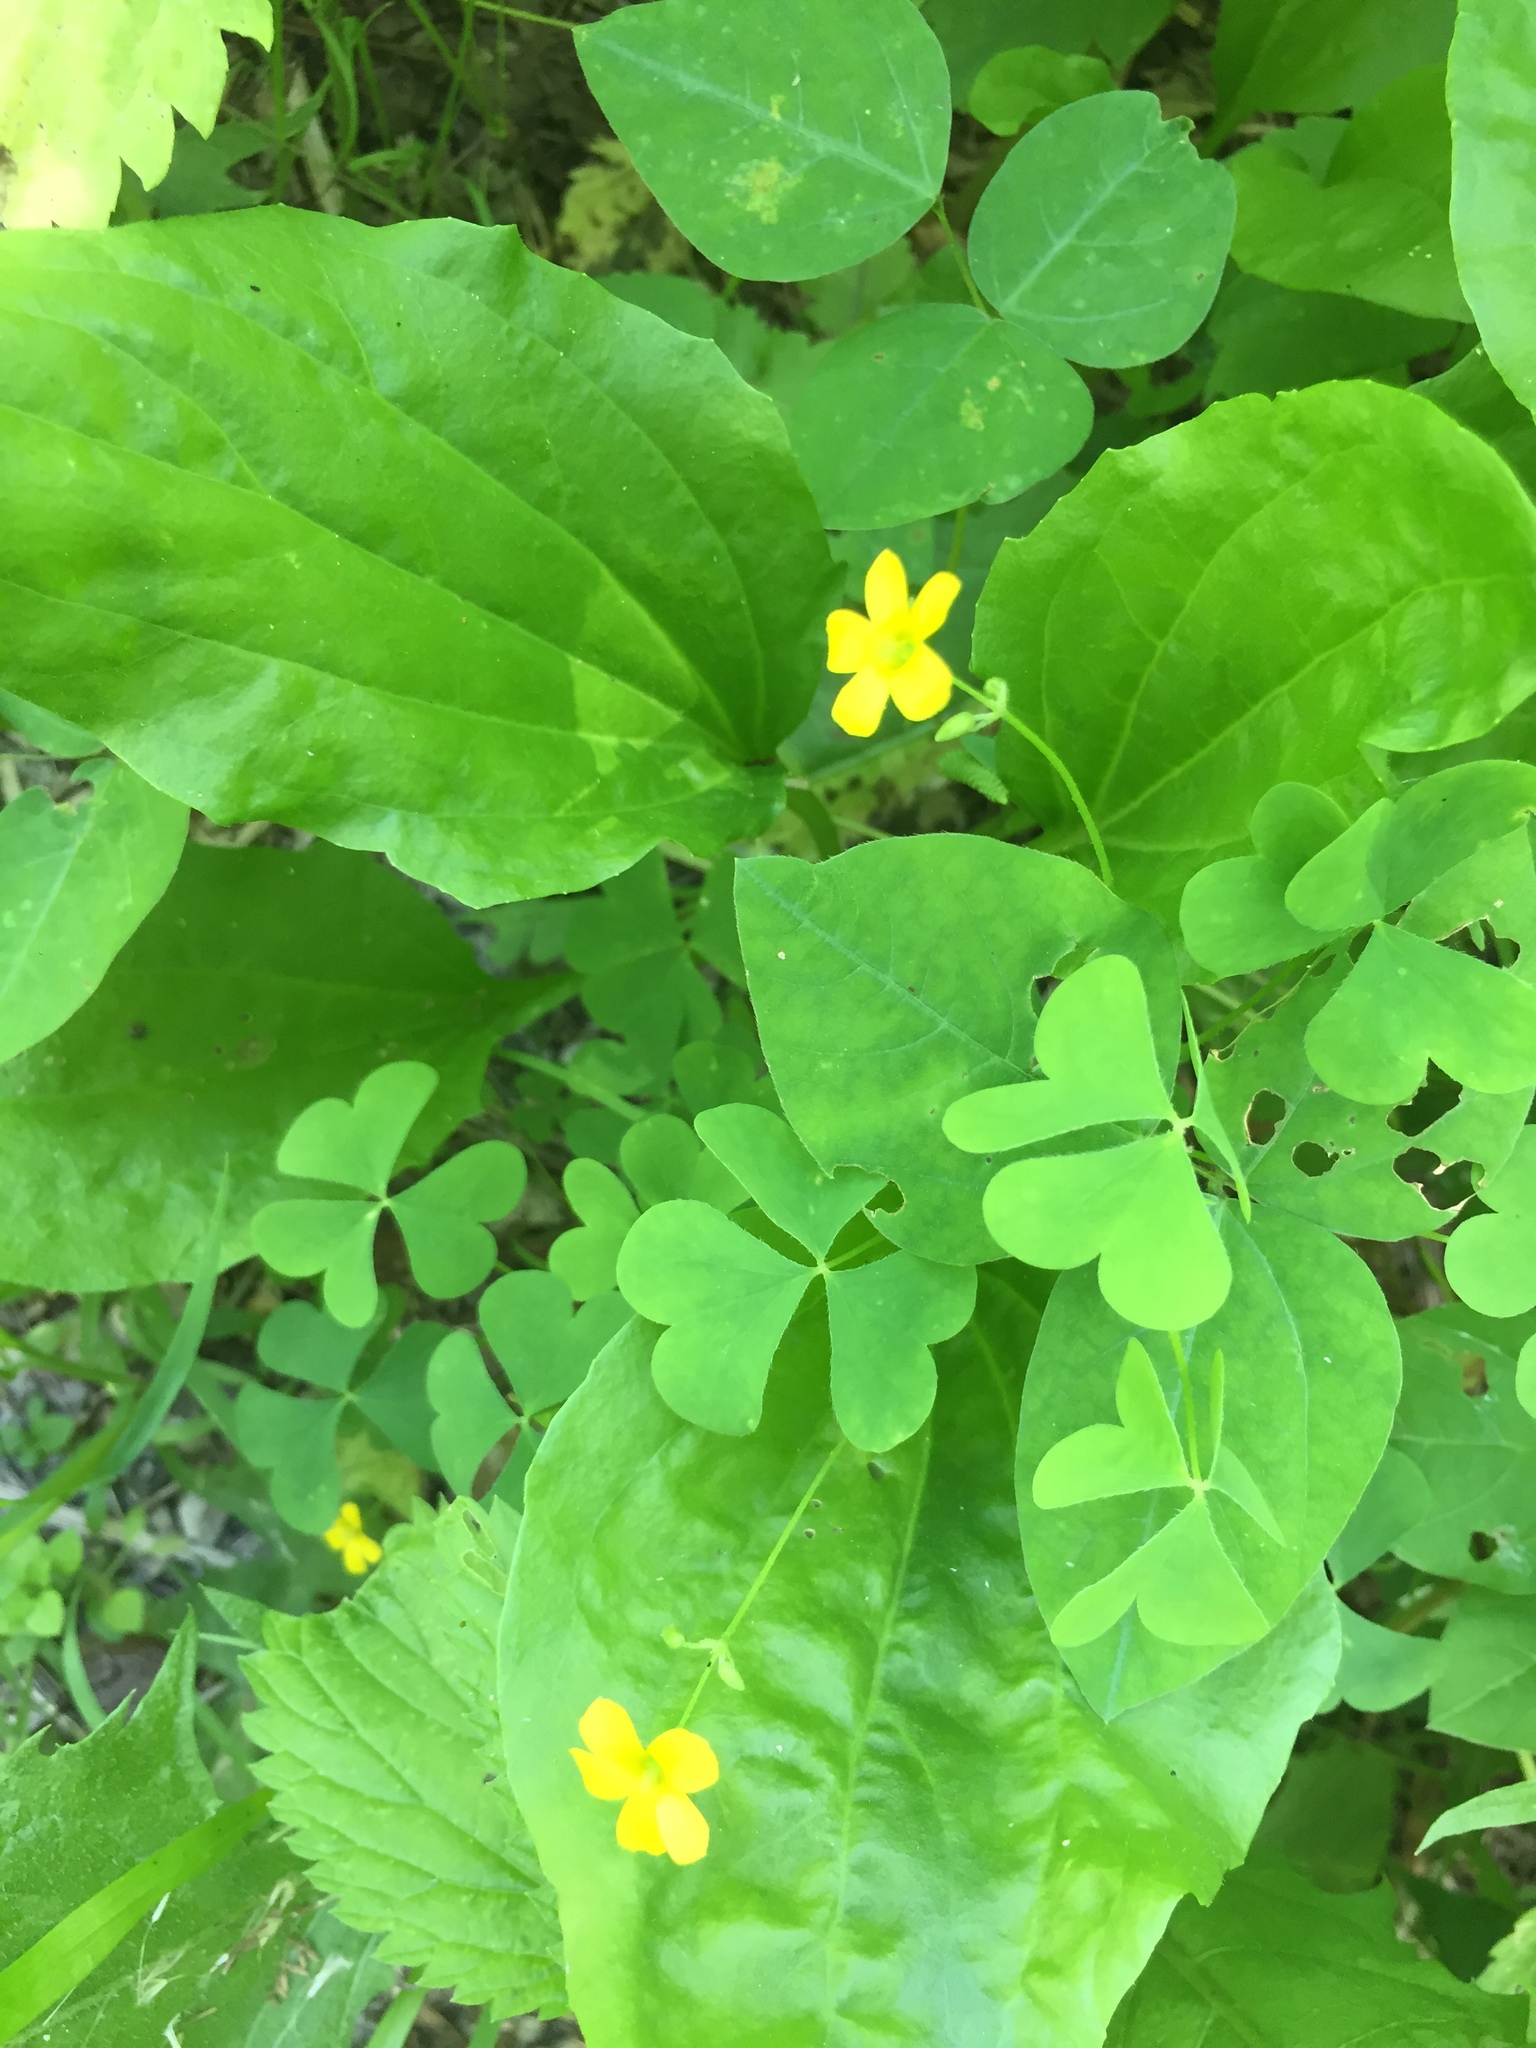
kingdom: Plantae
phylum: Tracheophyta
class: Magnoliopsida
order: Oxalidales
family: Oxalidaceae
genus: Oxalis
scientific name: Oxalis stricta
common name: Upright yellow-sorrel
